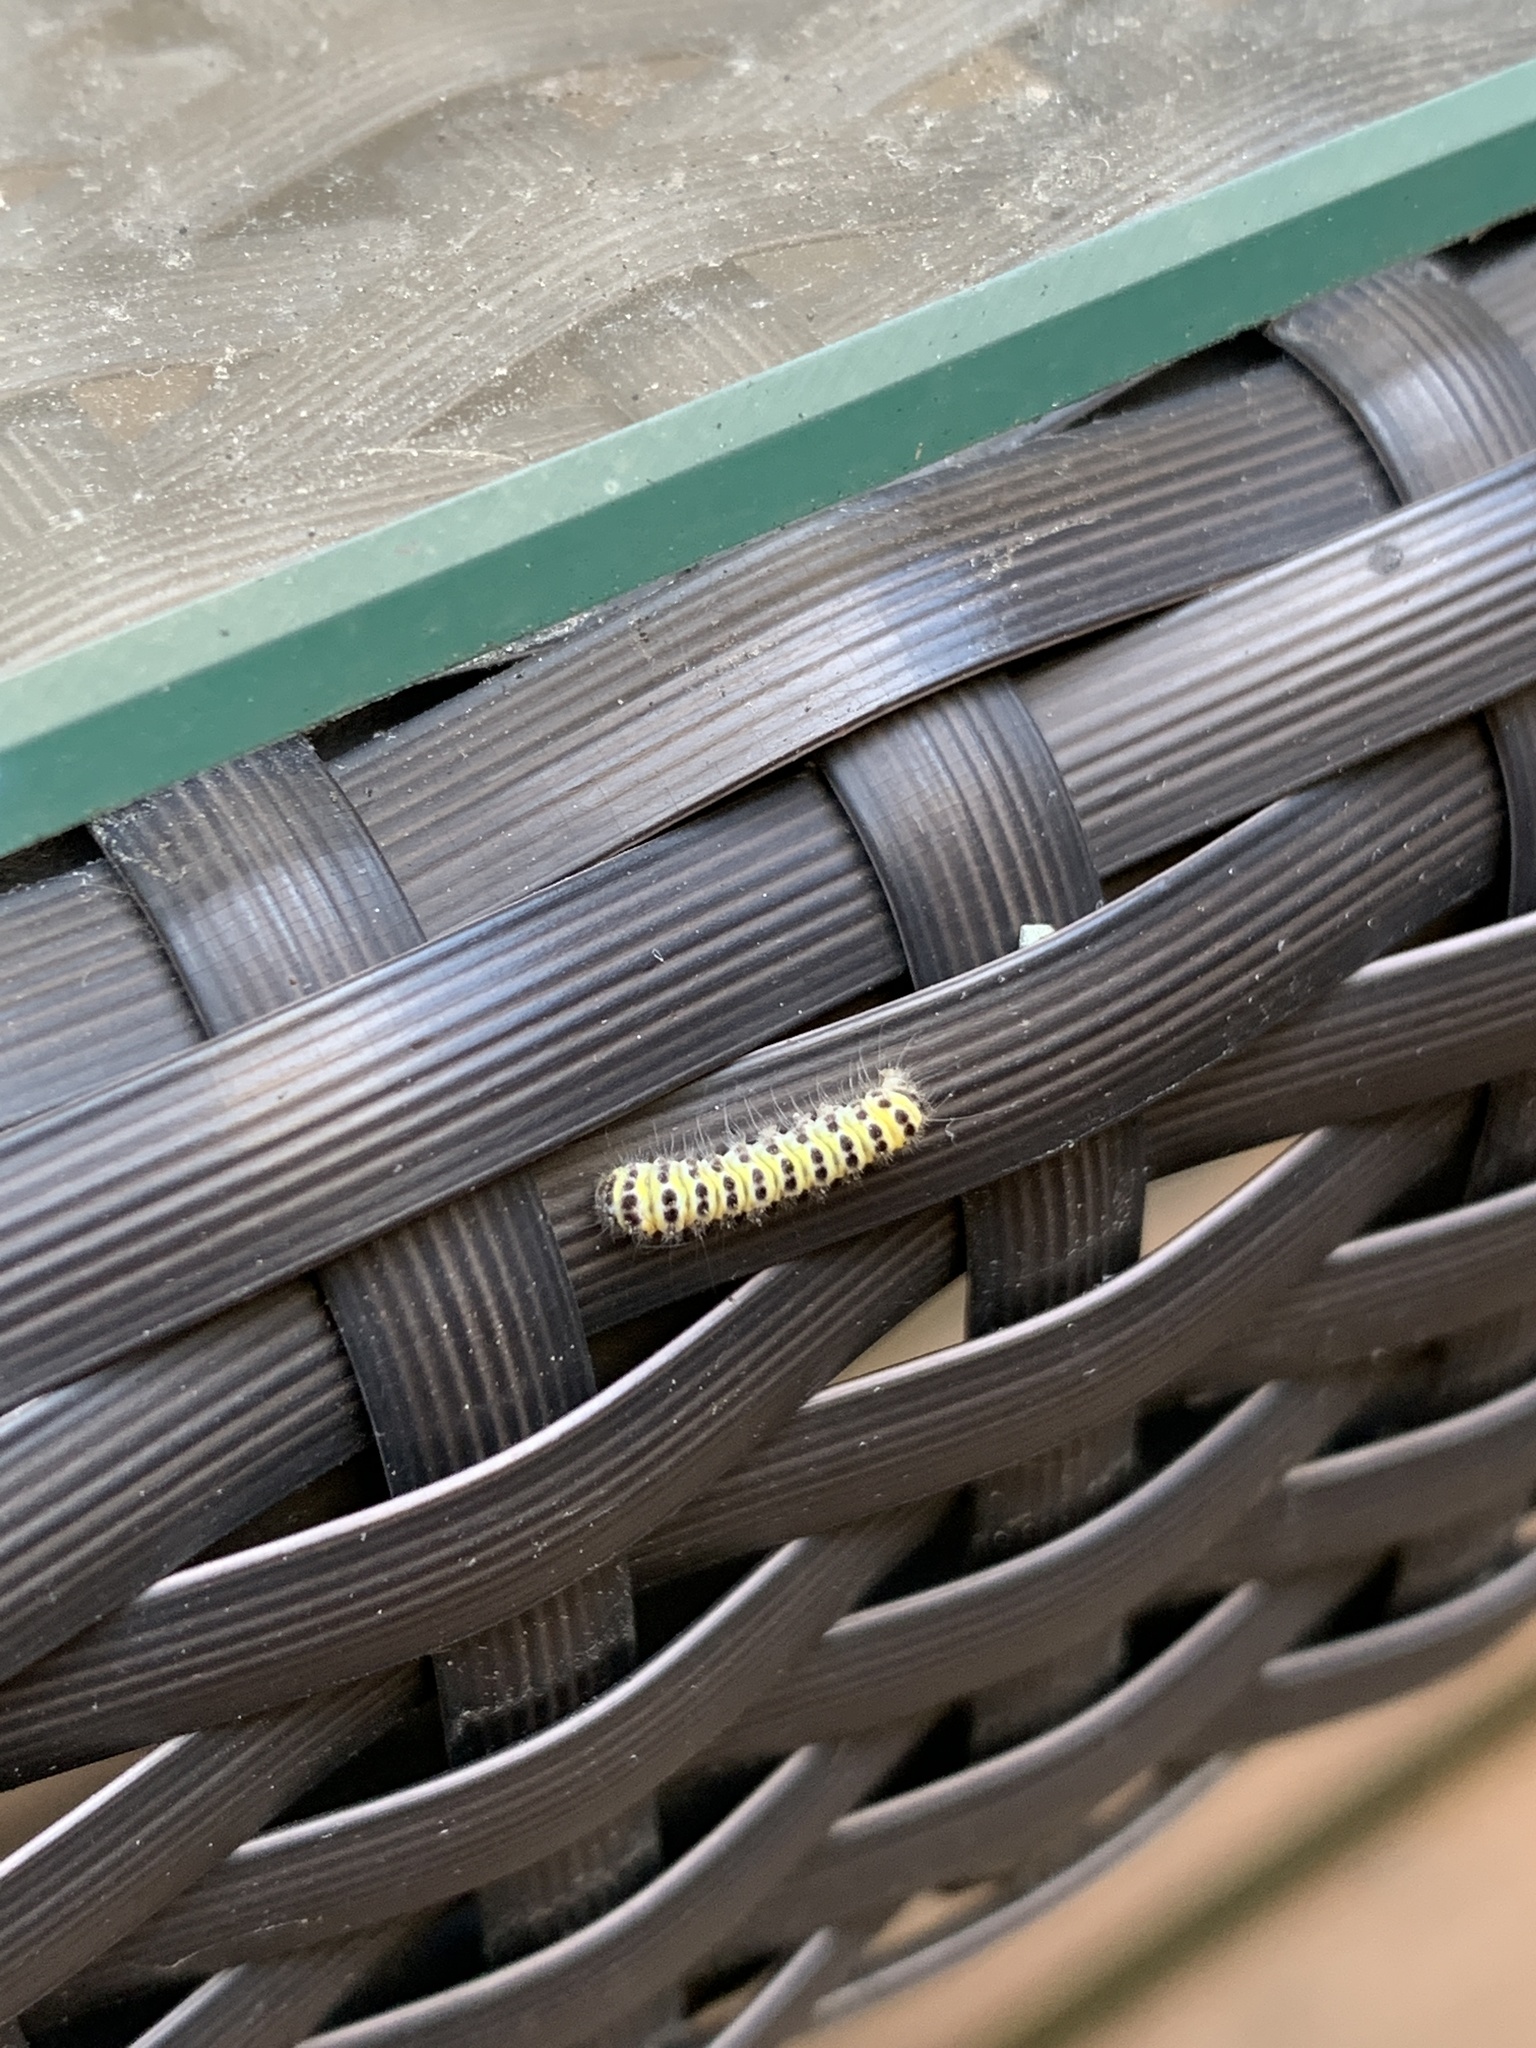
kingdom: Animalia
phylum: Arthropoda
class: Insecta
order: Lepidoptera
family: Zygaenidae
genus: Harrisina
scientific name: Harrisina americana
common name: Grapeleaf skeletonizer moth
